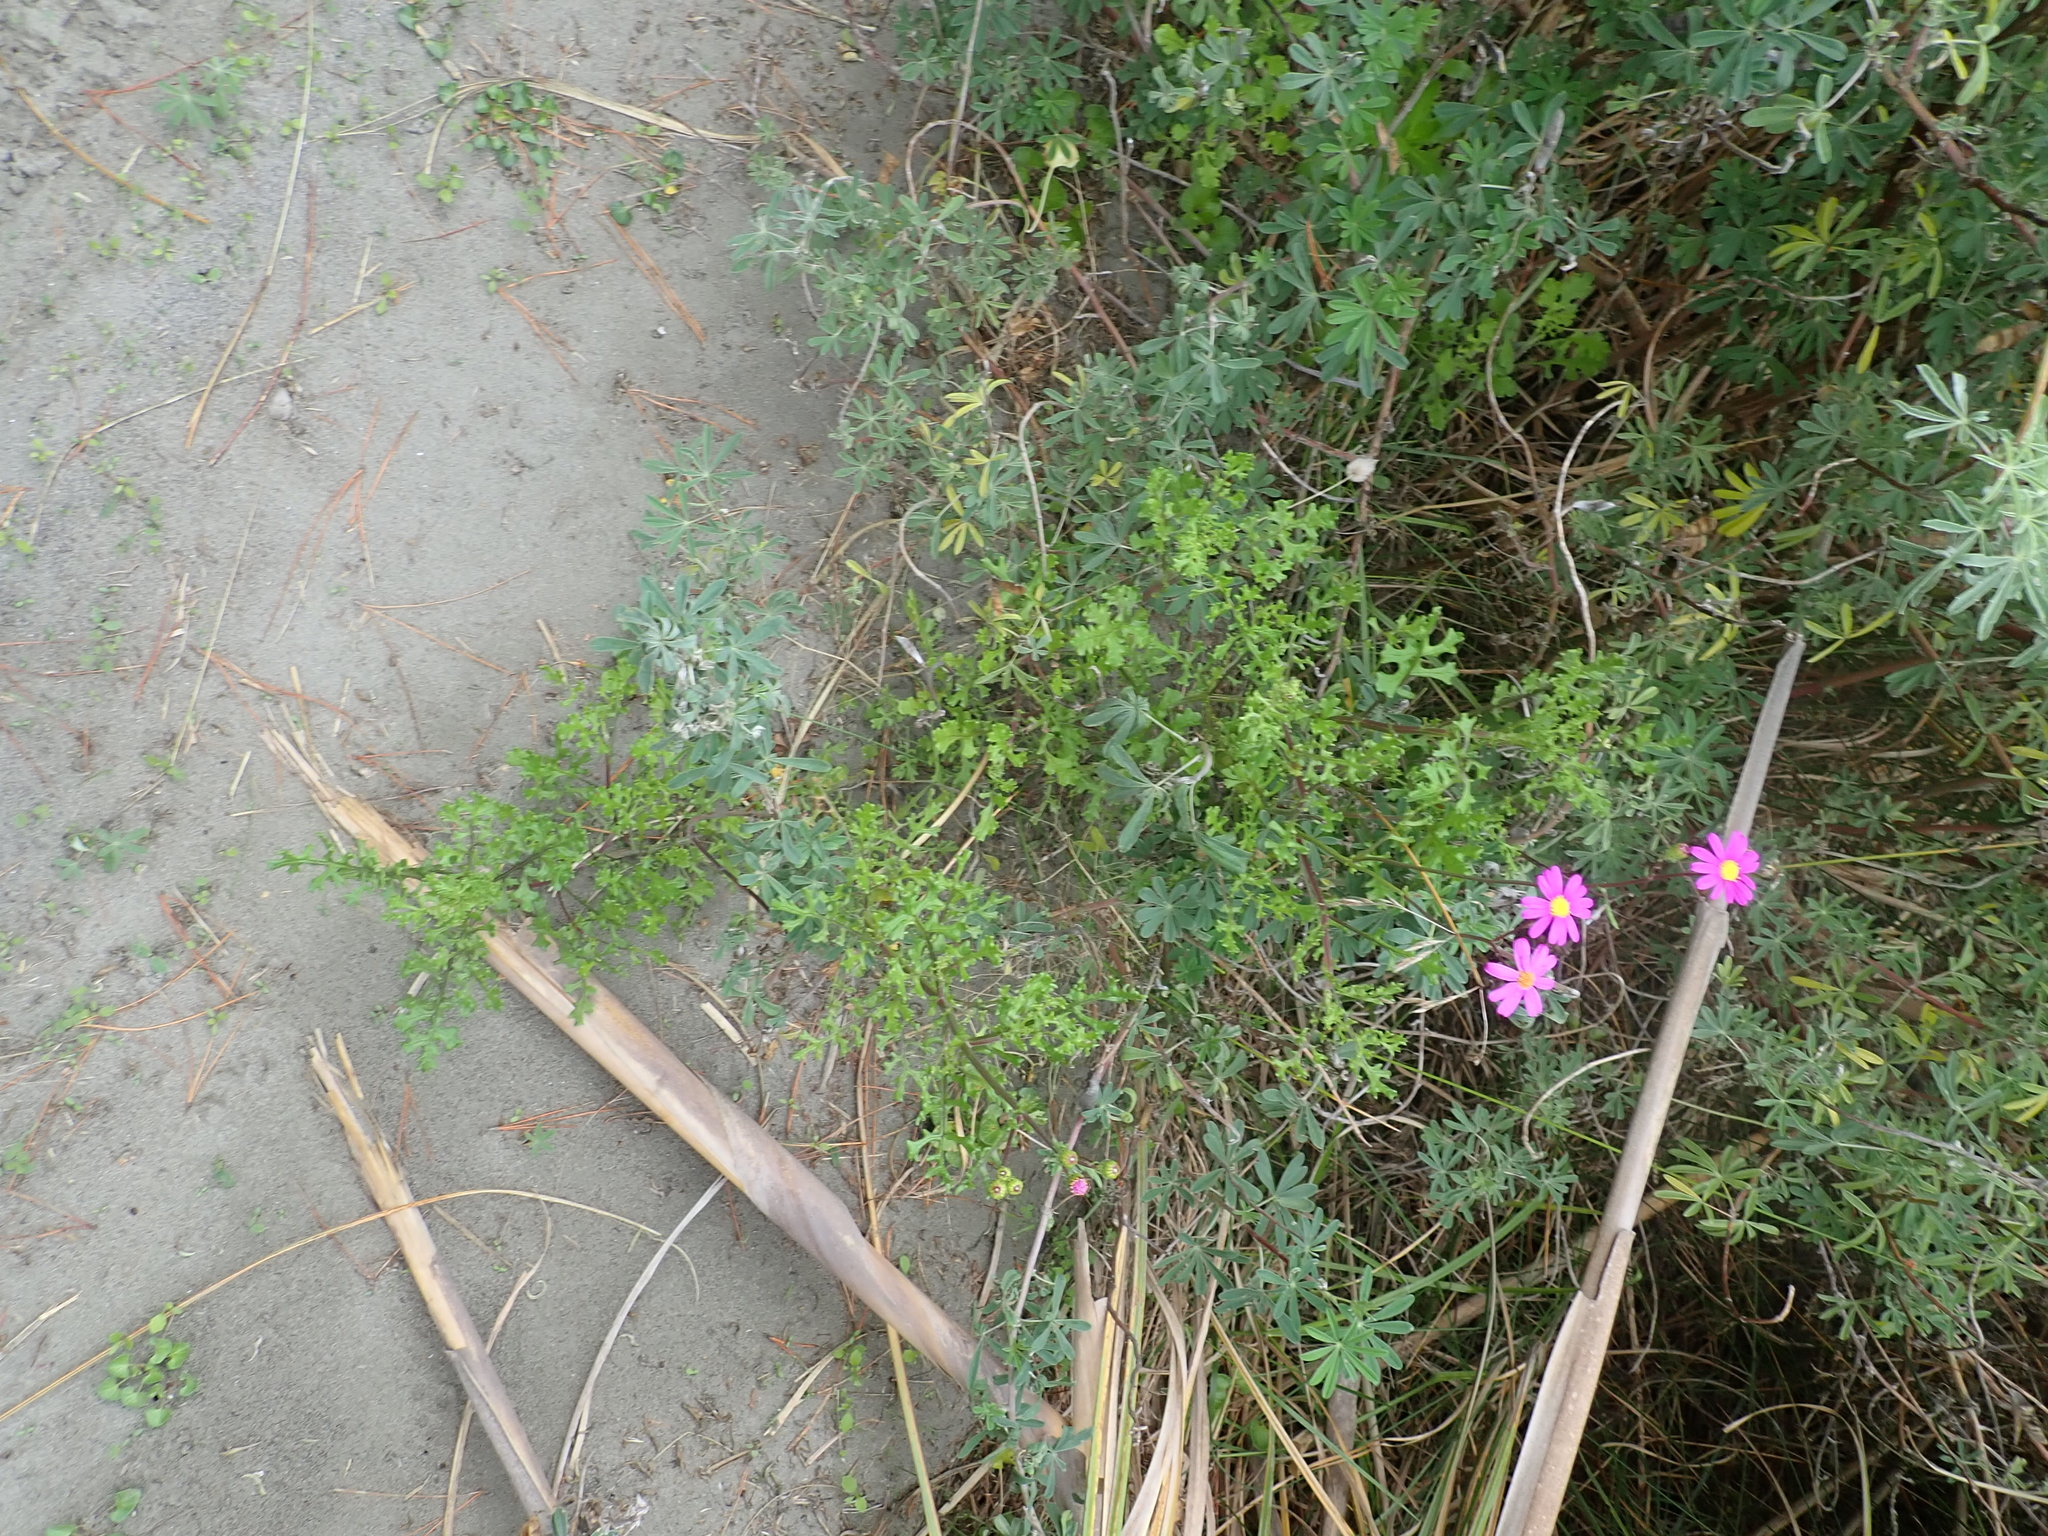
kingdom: Plantae
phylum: Tracheophyta
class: Magnoliopsida
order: Asterales
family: Asteraceae
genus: Senecio
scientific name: Senecio elegans
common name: Purple groundsel
